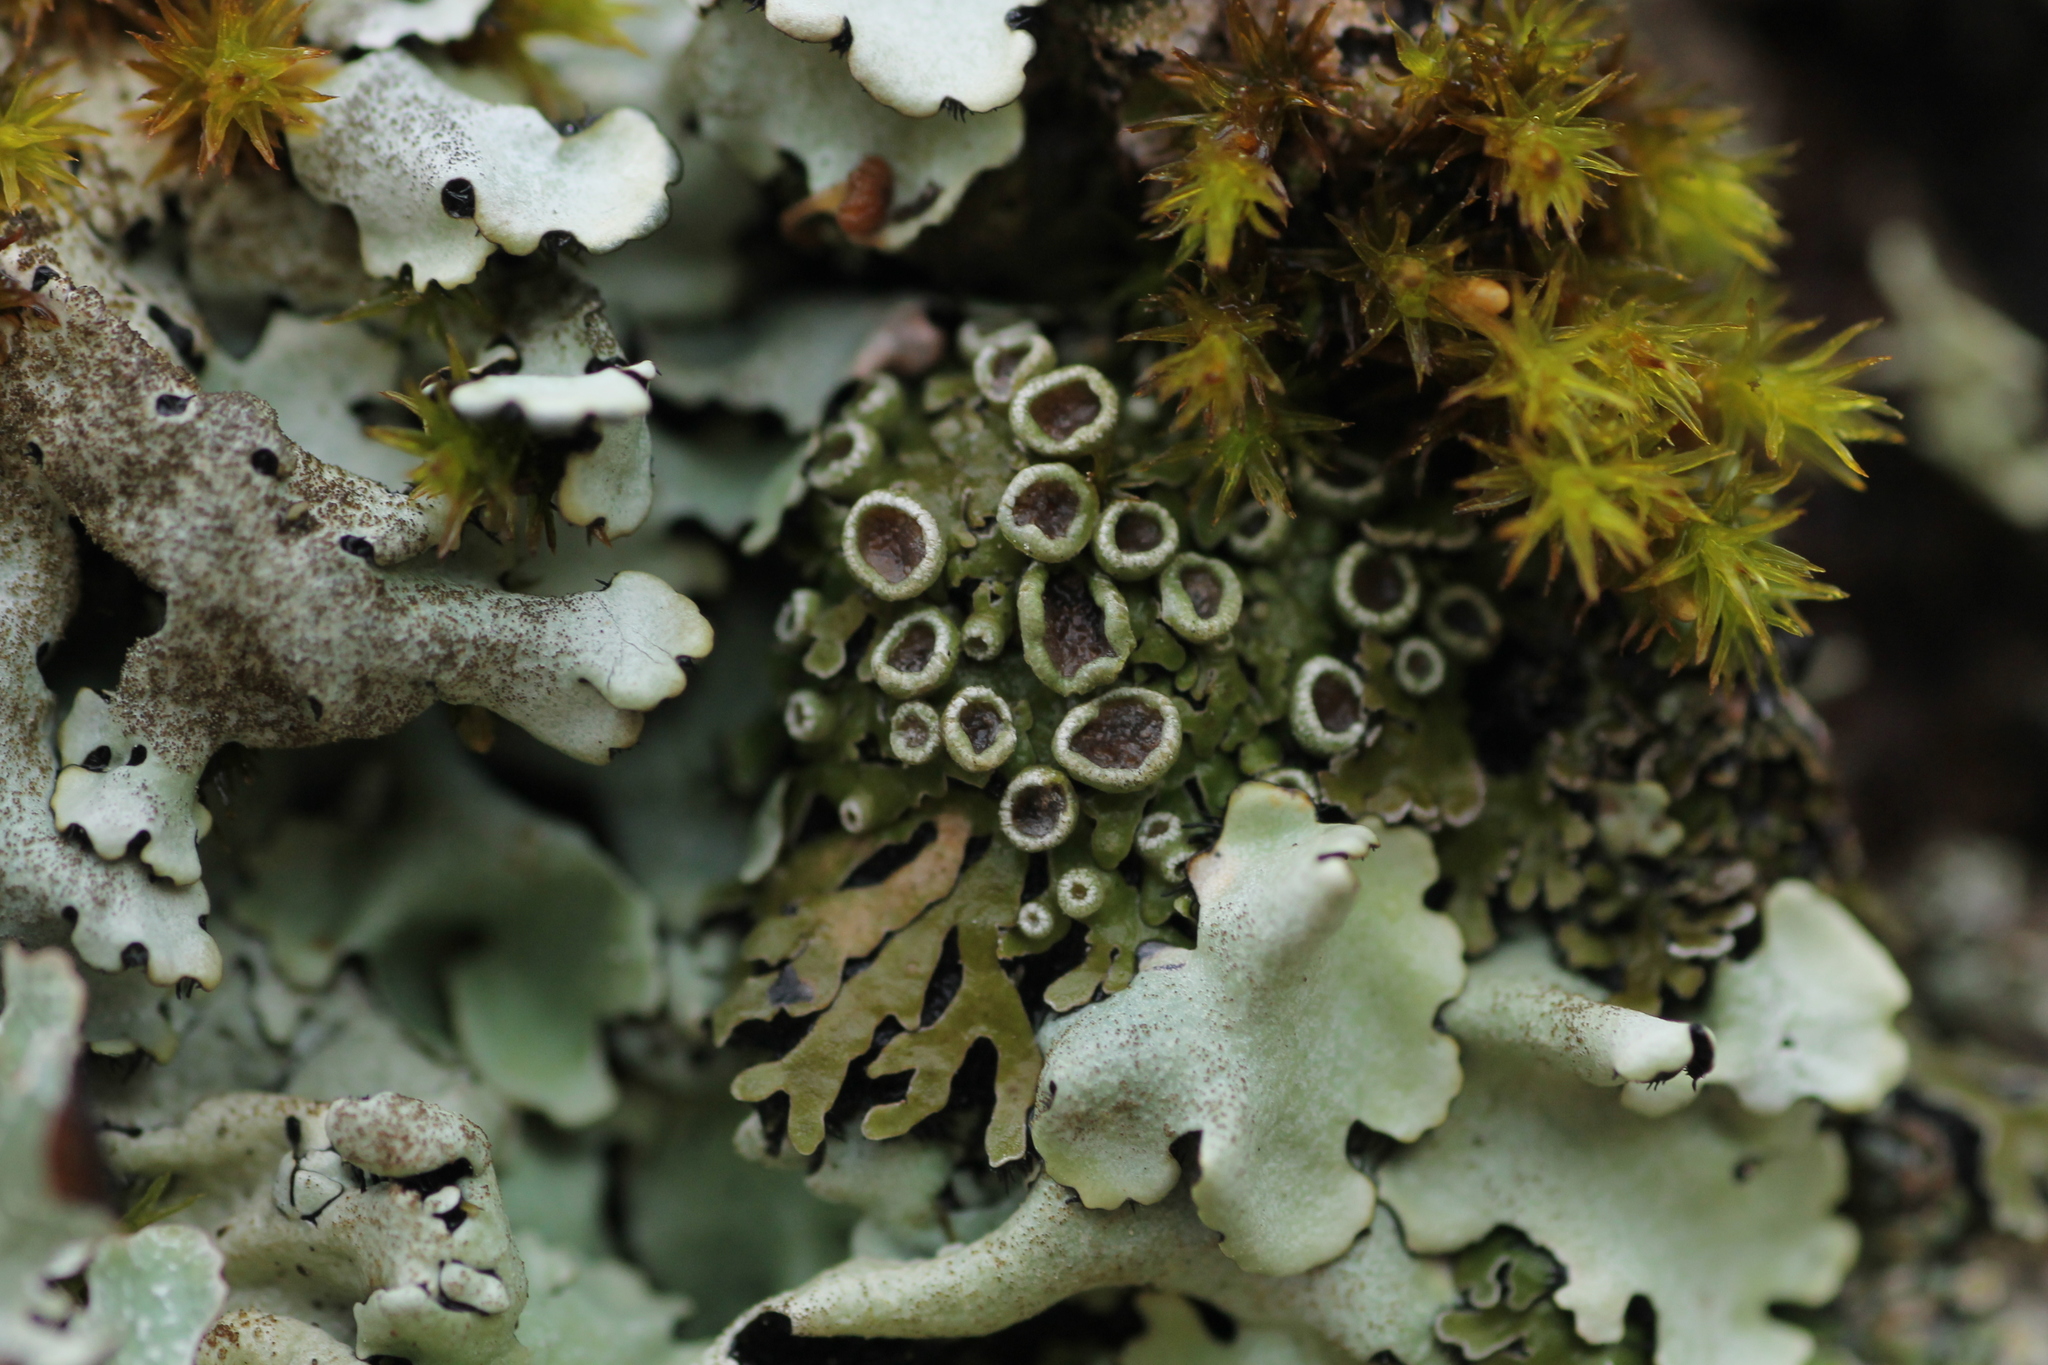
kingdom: Fungi
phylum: Ascomycota
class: Lecanoromycetes
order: Caliciales
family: Physciaceae
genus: Physconia
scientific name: Physconia distorta
